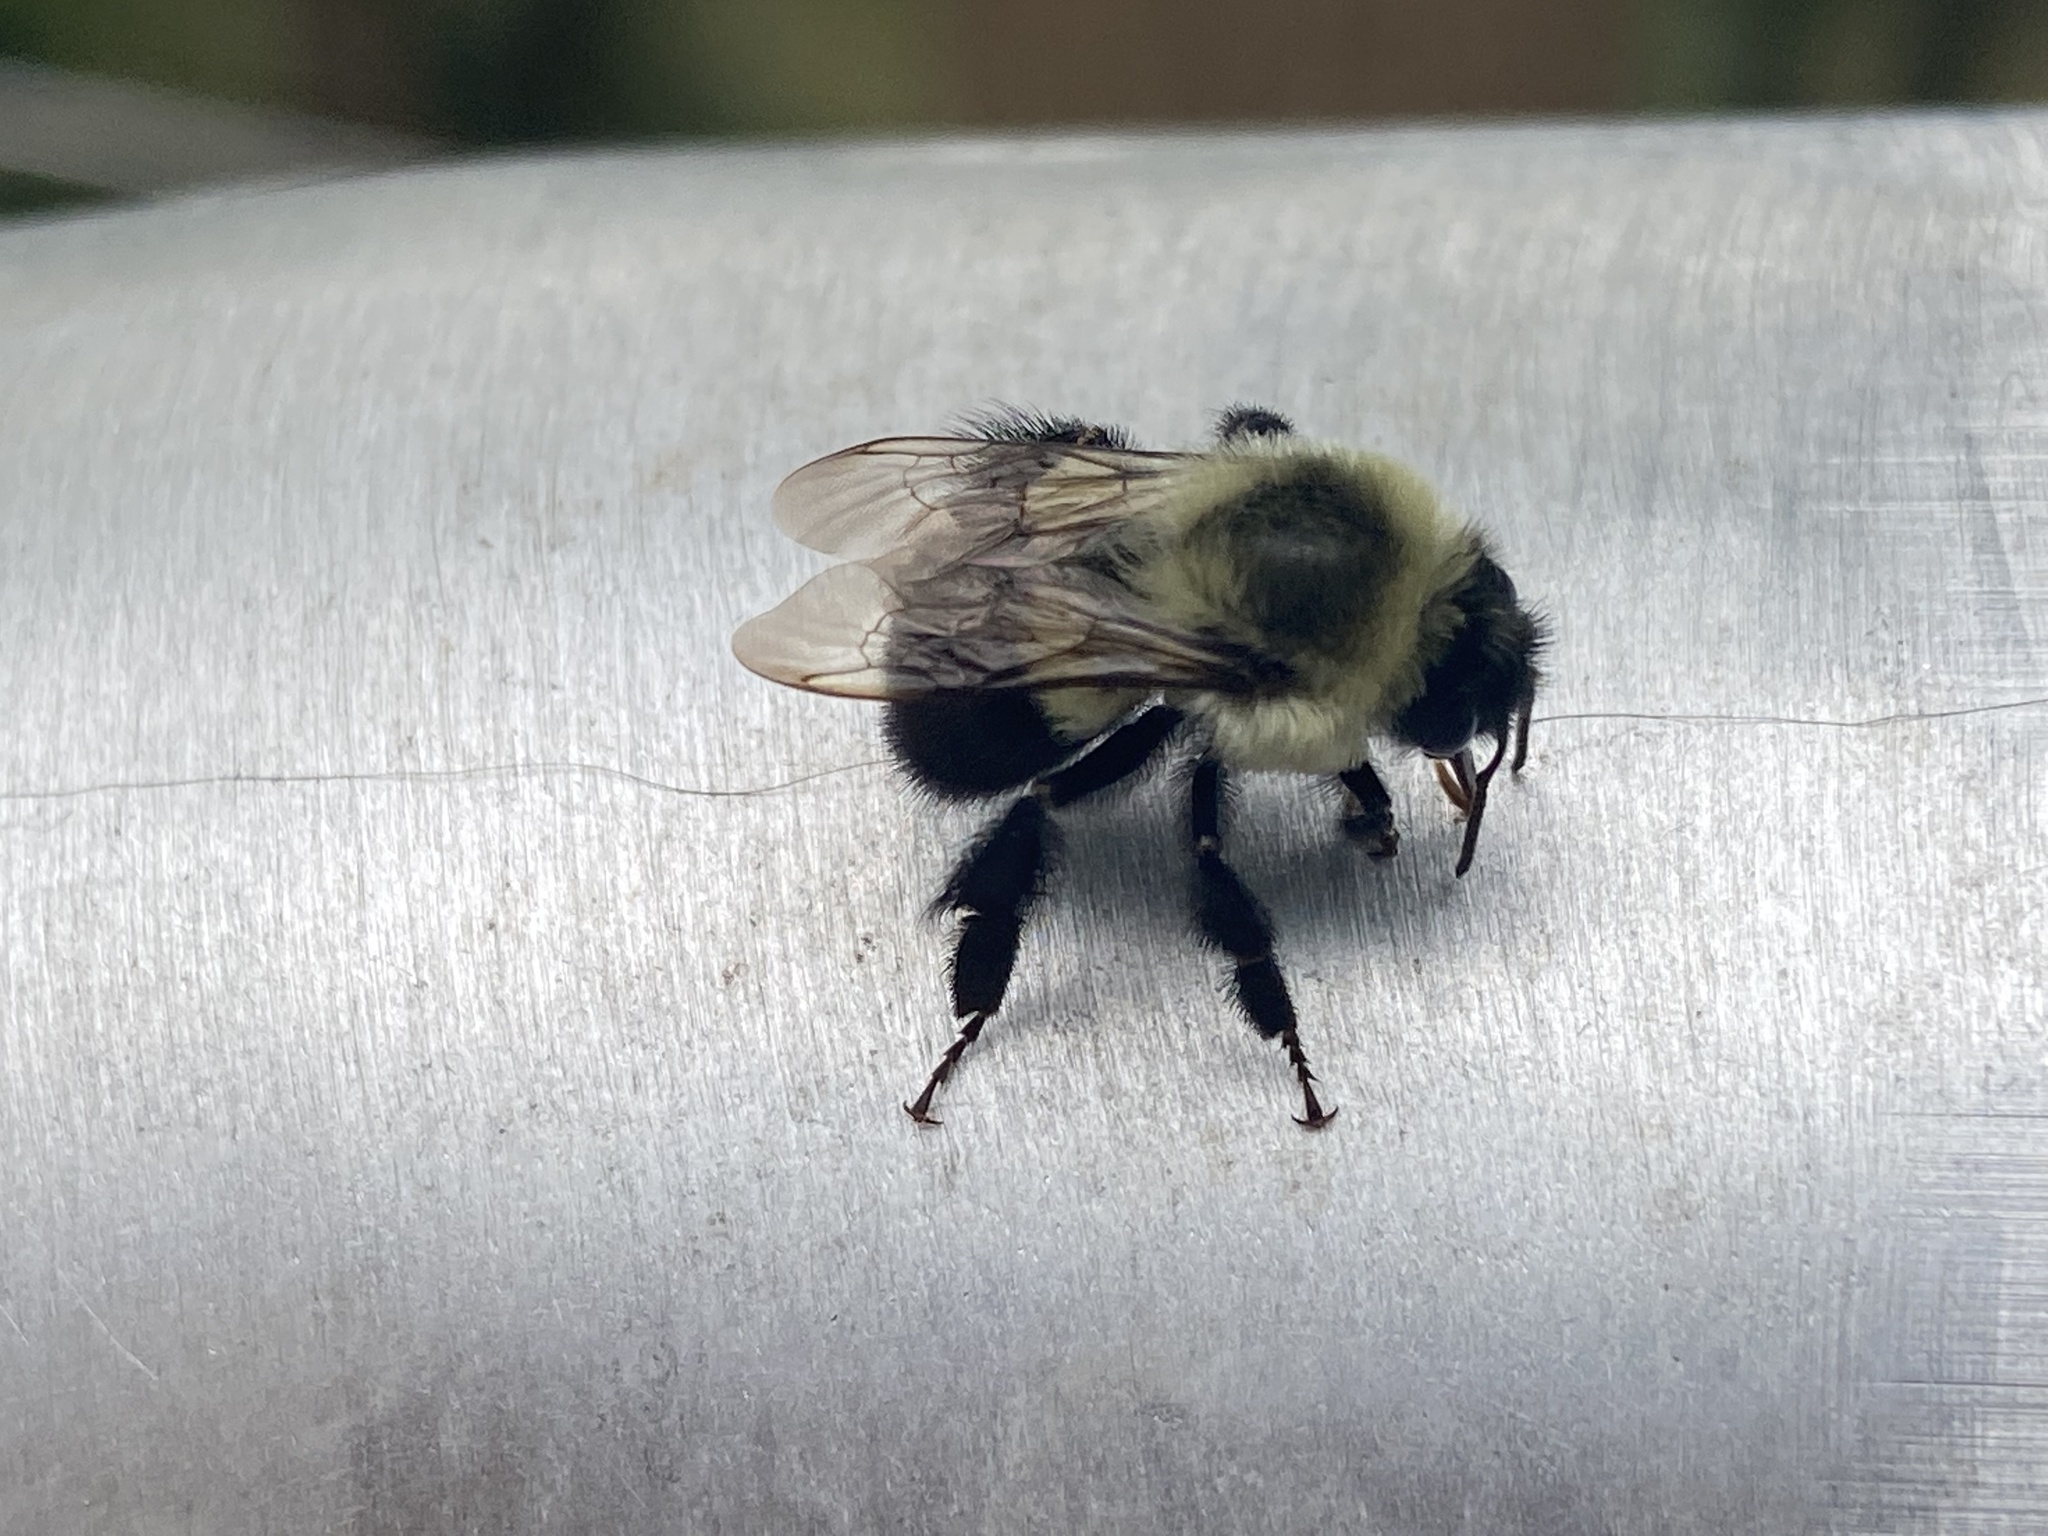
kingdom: Animalia
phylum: Arthropoda
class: Insecta
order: Hymenoptera
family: Apidae
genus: Bombus
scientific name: Bombus impatiens
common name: Common eastern bumble bee
